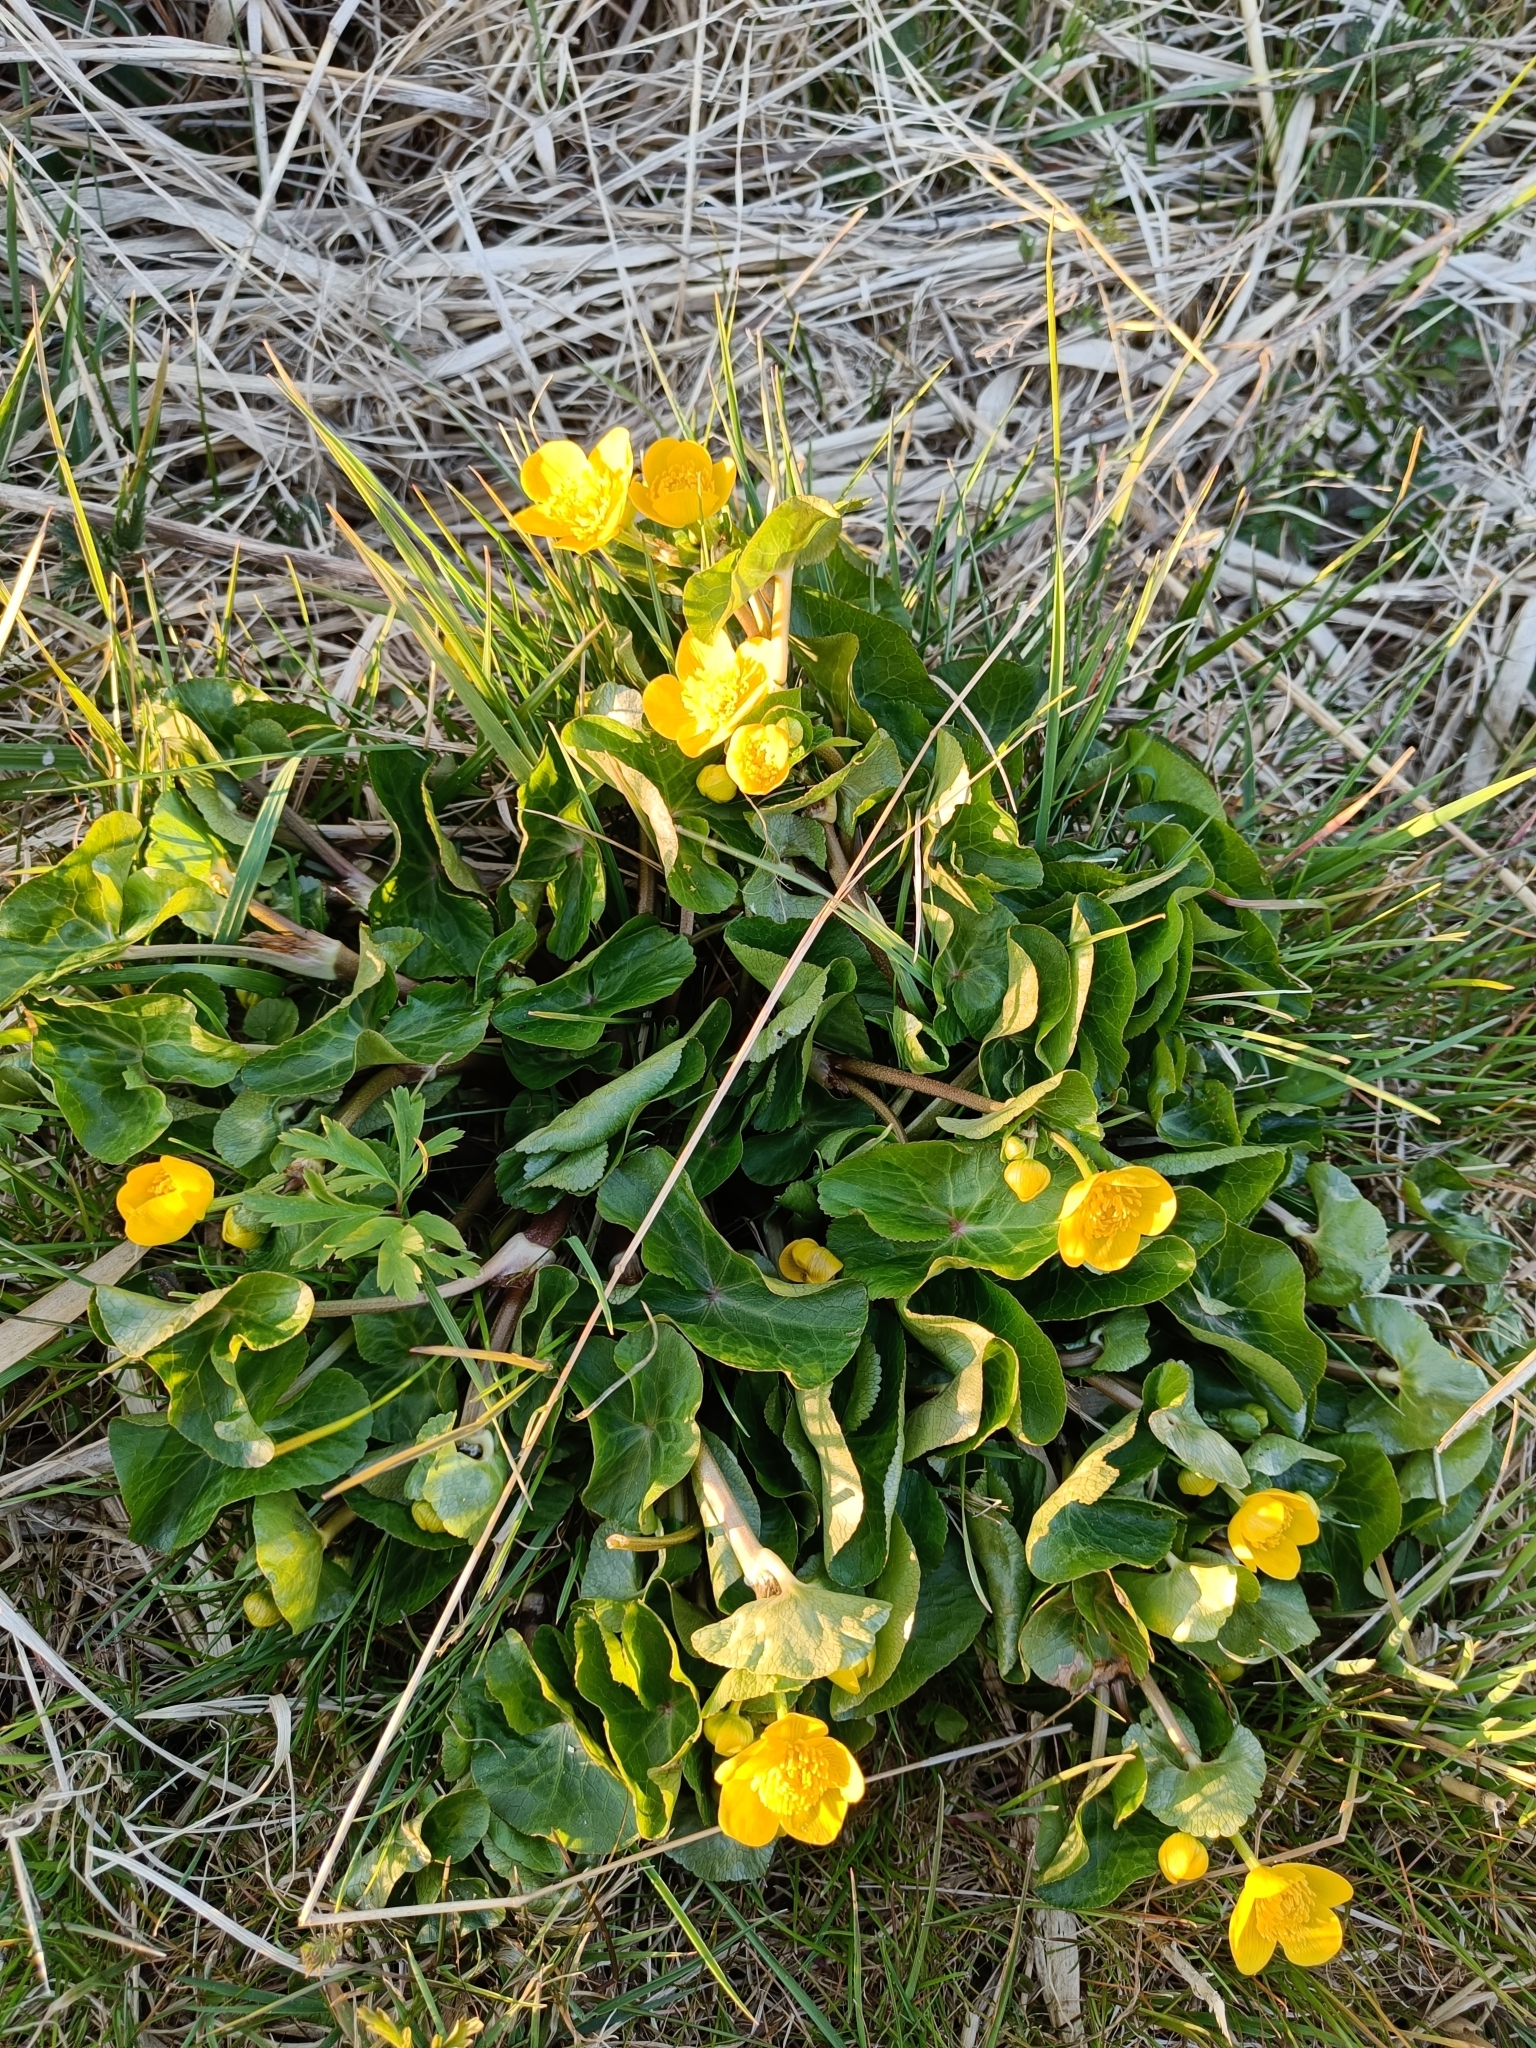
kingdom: Plantae
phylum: Tracheophyta
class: Magnoliopsida
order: Ranunculales
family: Ranunculaceae
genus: Caltha
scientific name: Caltha palustris
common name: Marsh marigold
